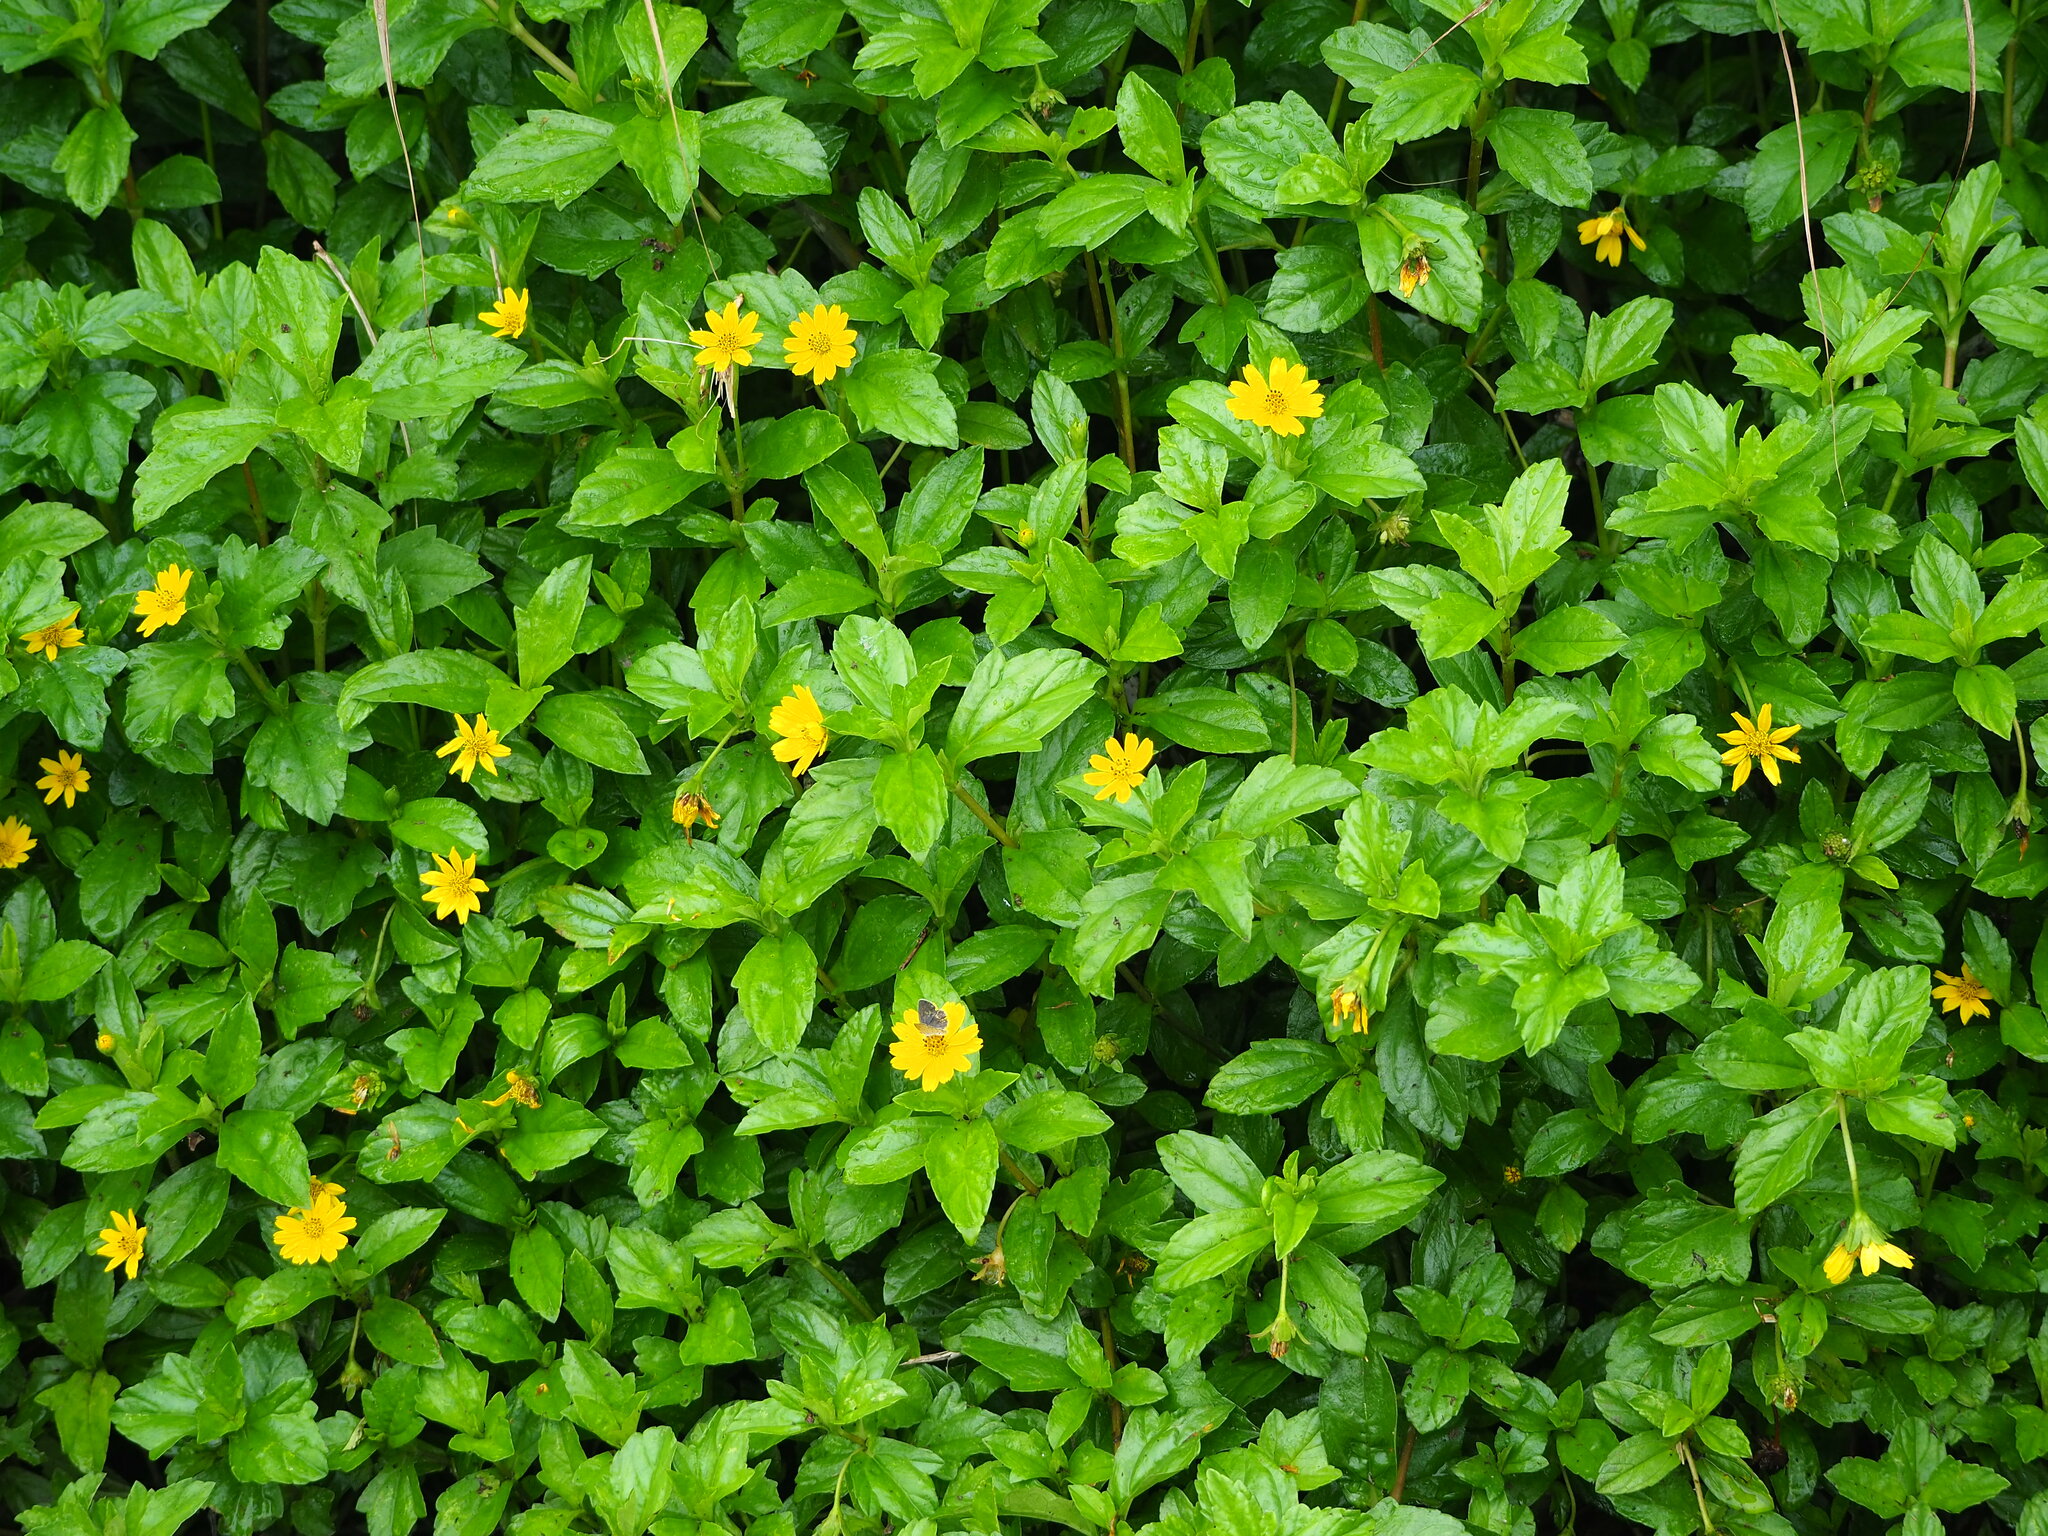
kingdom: Plantae
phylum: Tracheophyta
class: Magnoliopsida
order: Asterales
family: Asteraceae
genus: Sphagneticola
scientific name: Sphagneticola trilobata
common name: Bay biscayne creeping-oxeye
